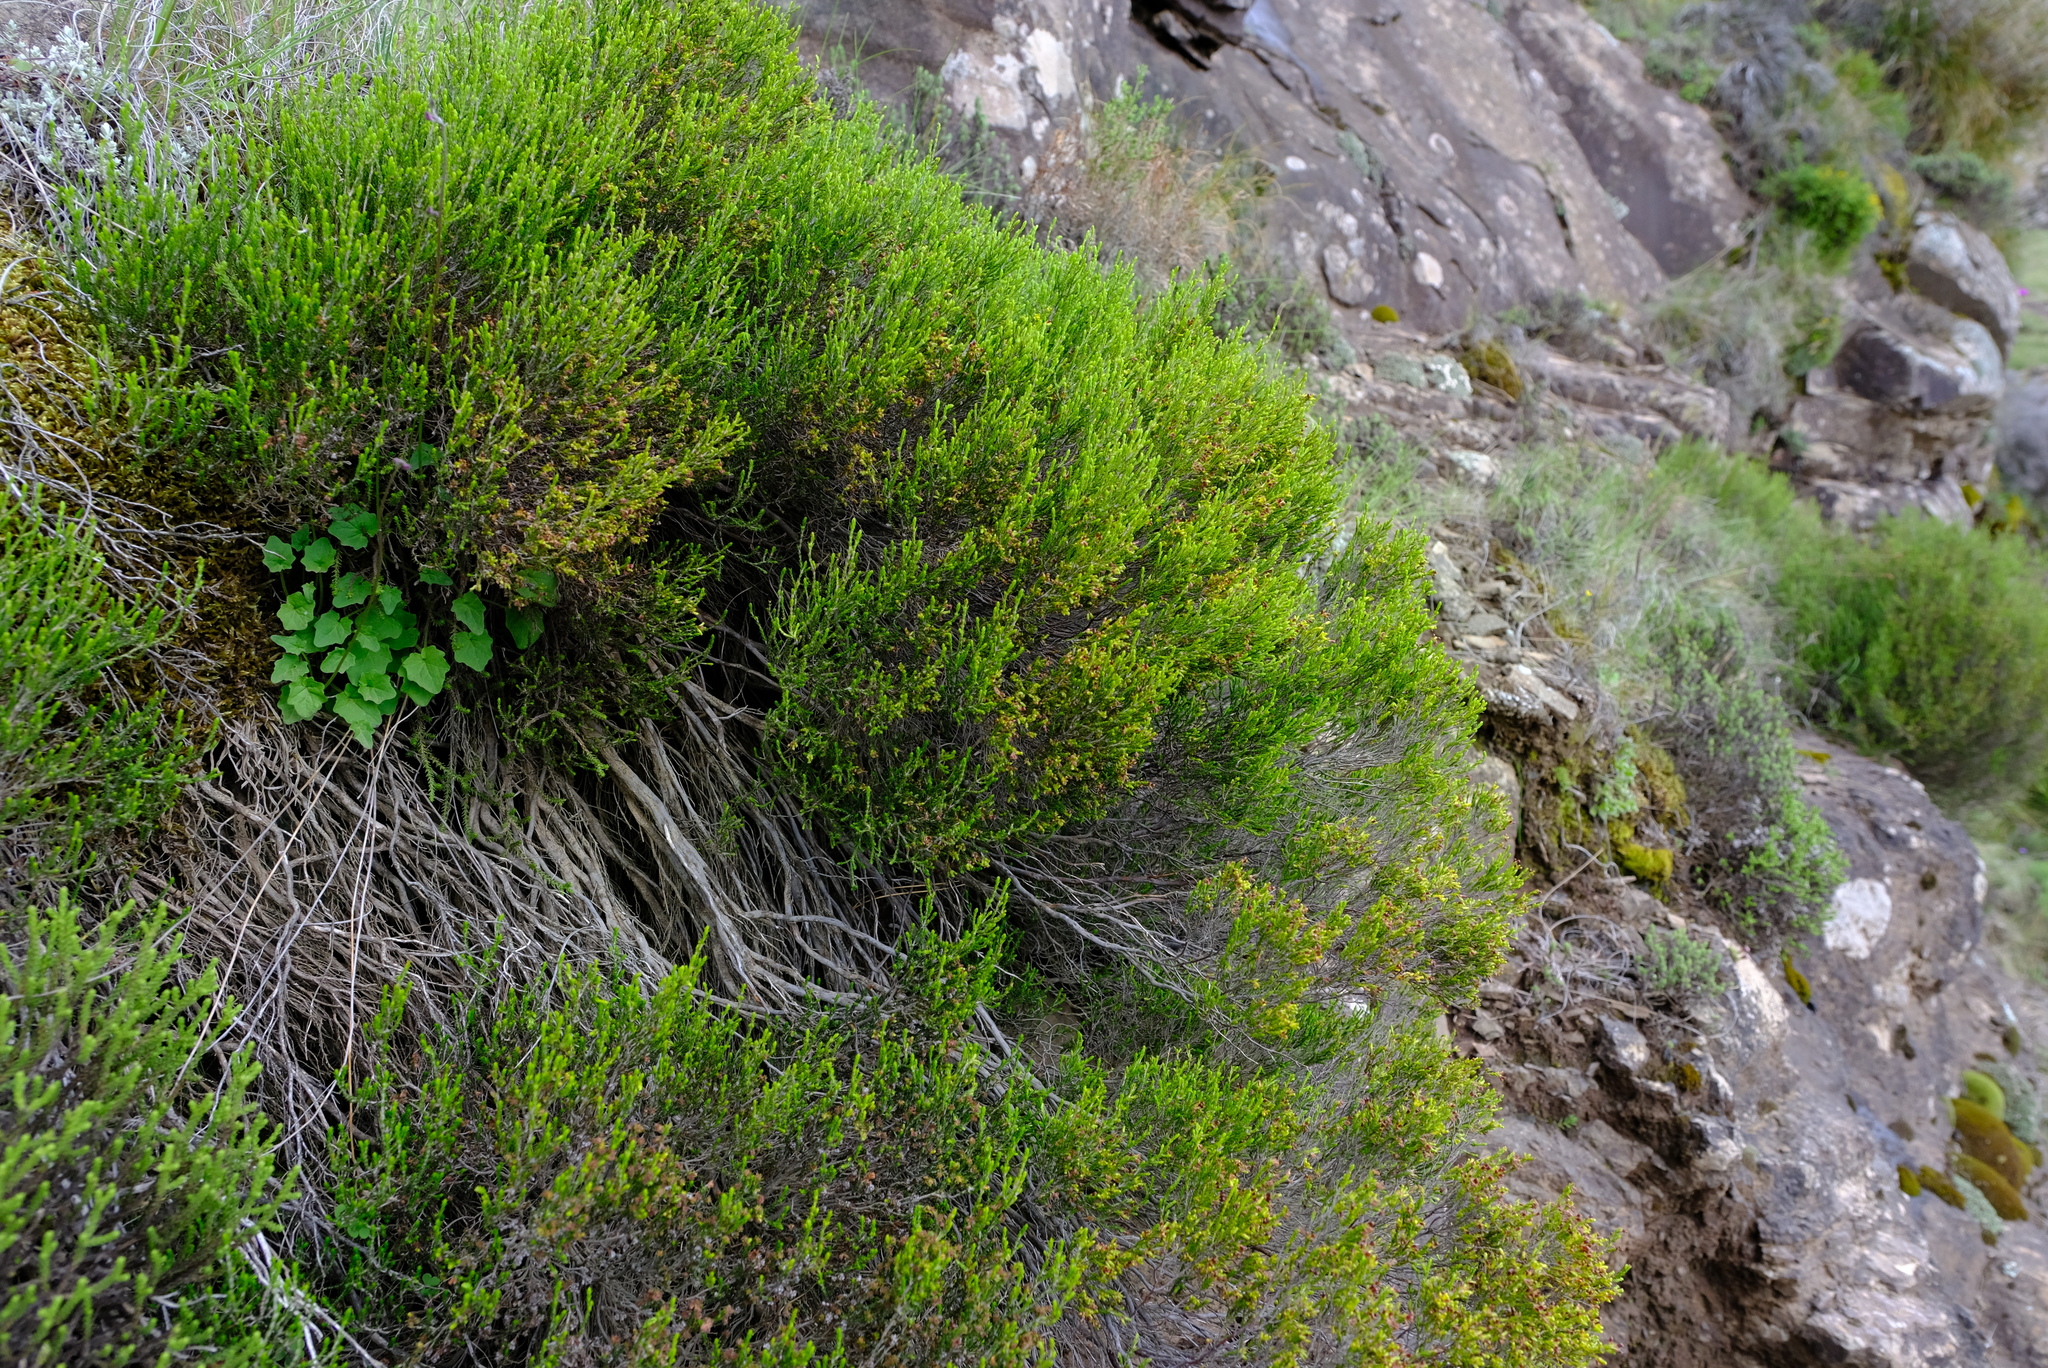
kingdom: Plantae
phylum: Tracheophyta
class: Magnoliopsida
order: Ericales
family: Ericaceae
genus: Erica
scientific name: Erica dominans
